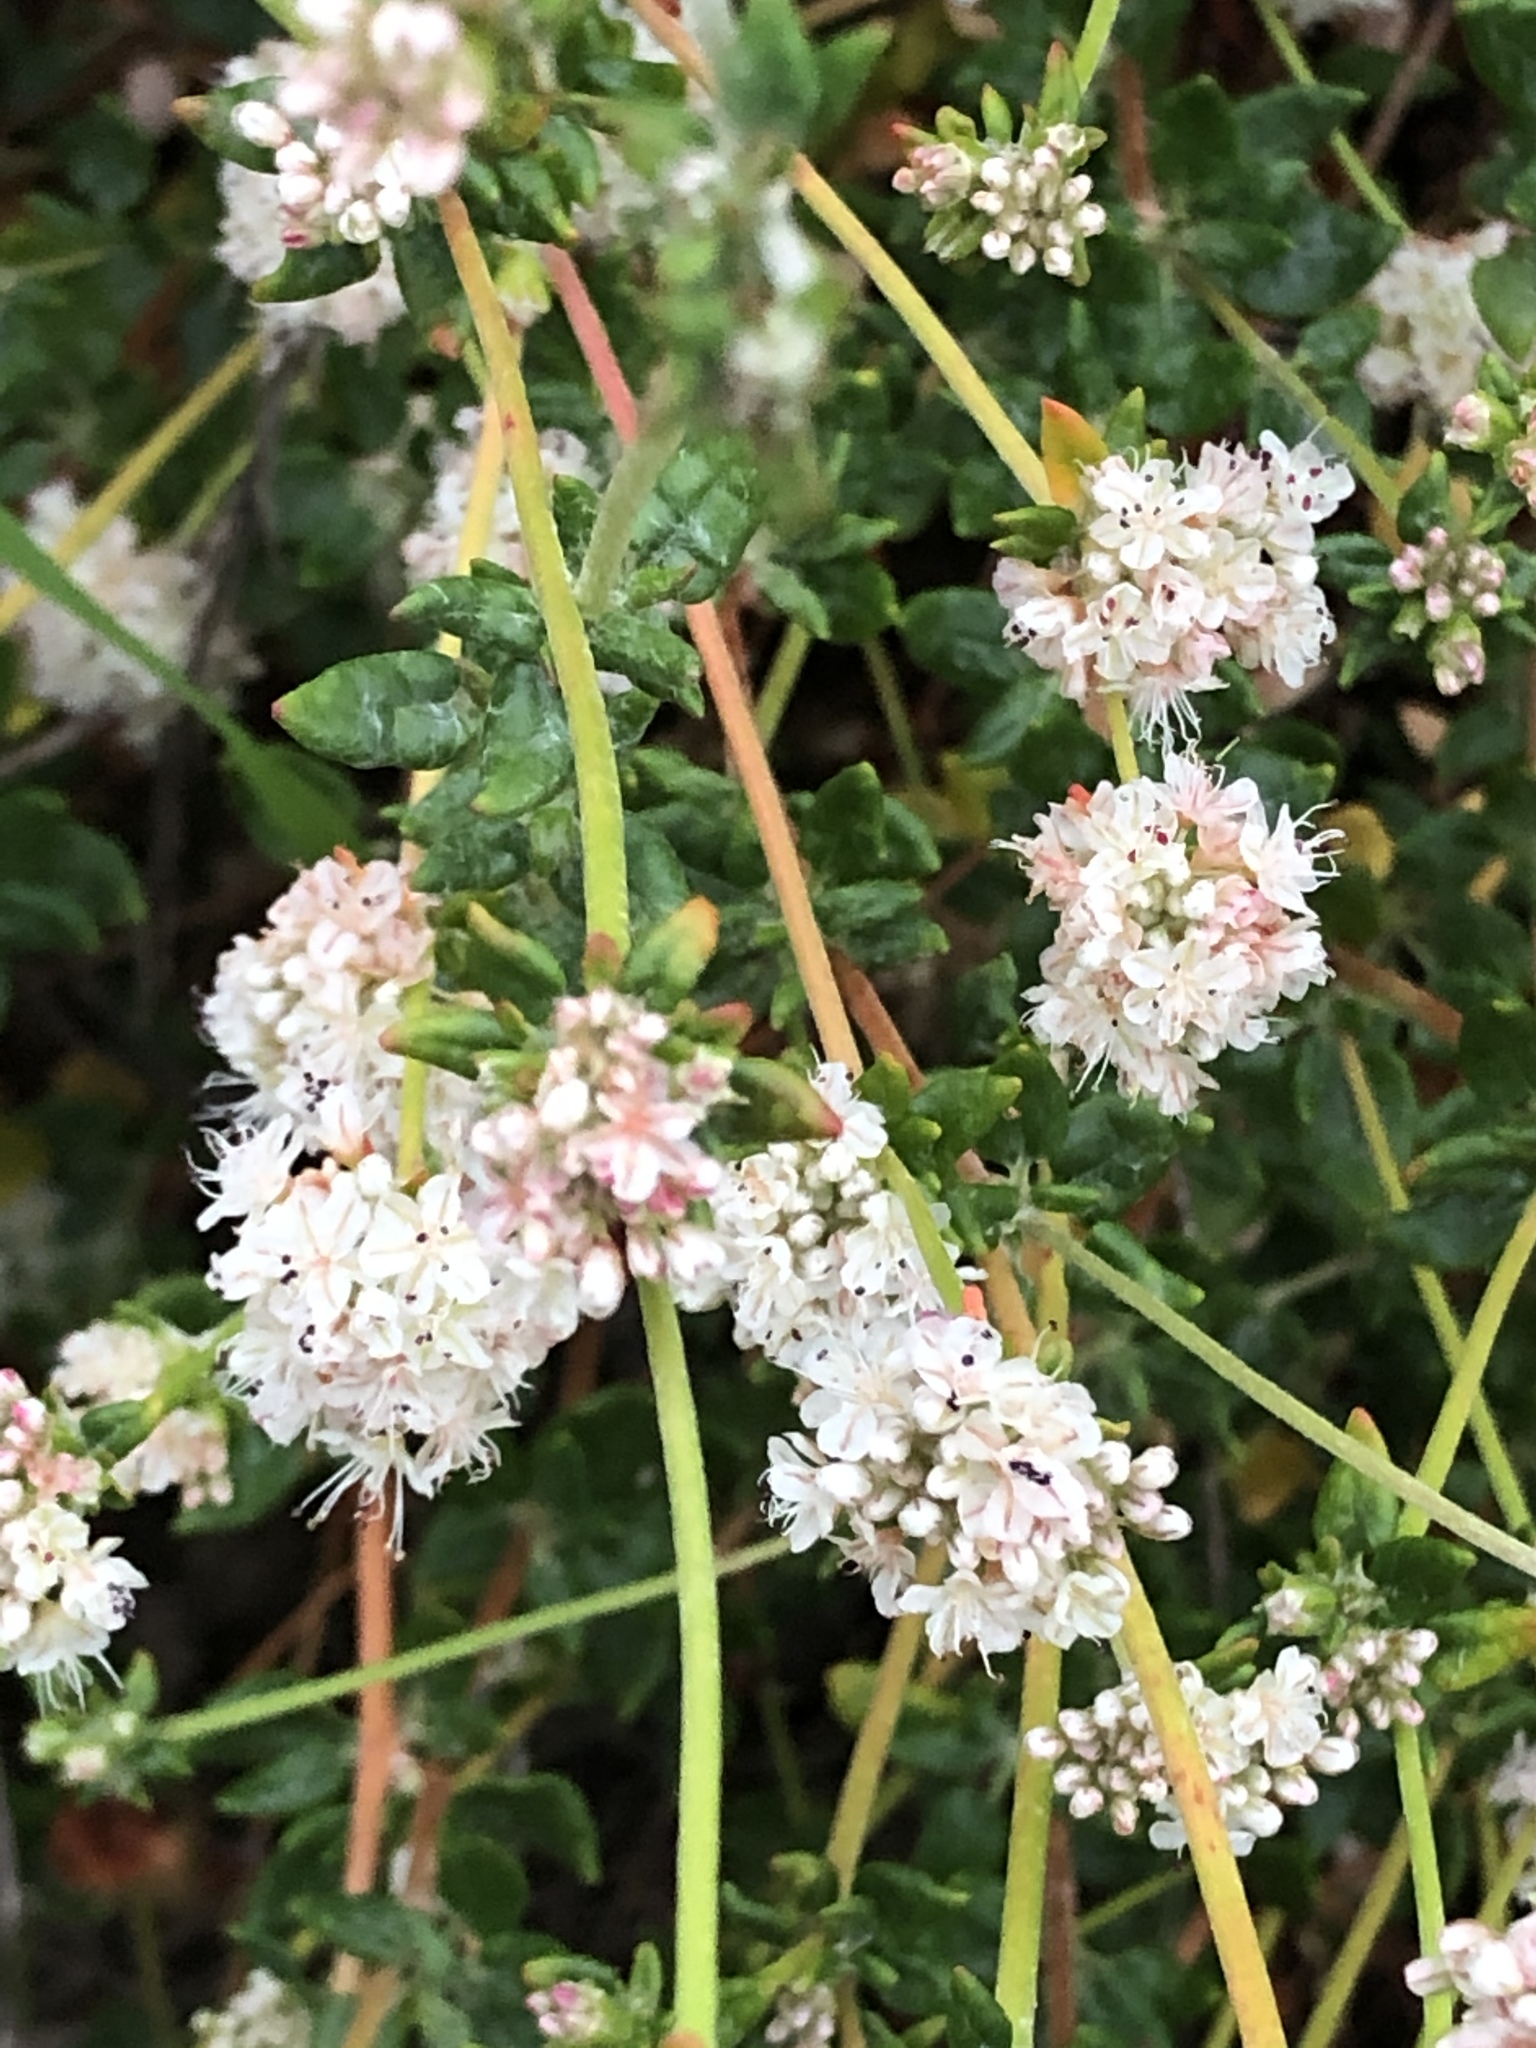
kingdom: Plantae
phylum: Tracheophyta
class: Magnoliopsida
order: Caryophyllales
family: Polygonaceae
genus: Eriogonum
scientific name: Eriogonum parvifolium
